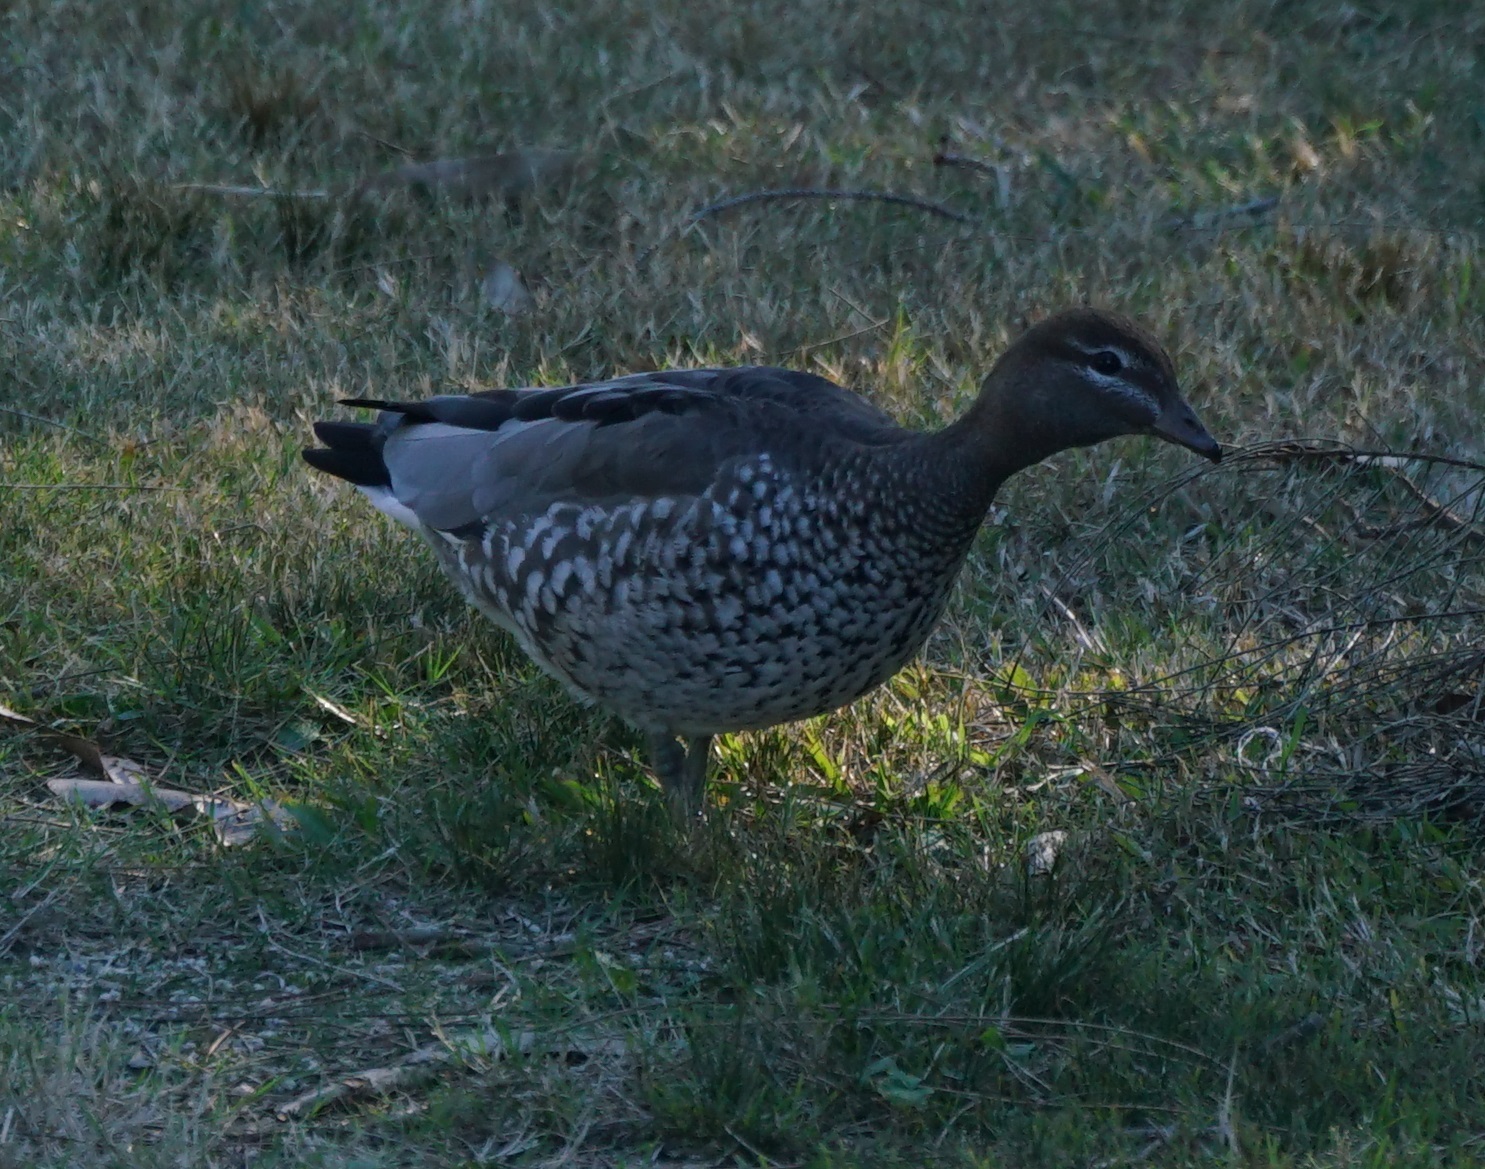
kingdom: Animalia
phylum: Chordata
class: Aves
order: Anseriformes
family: Anatidae
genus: Chenonetta
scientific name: Chenonetta jubata
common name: Maned duck
